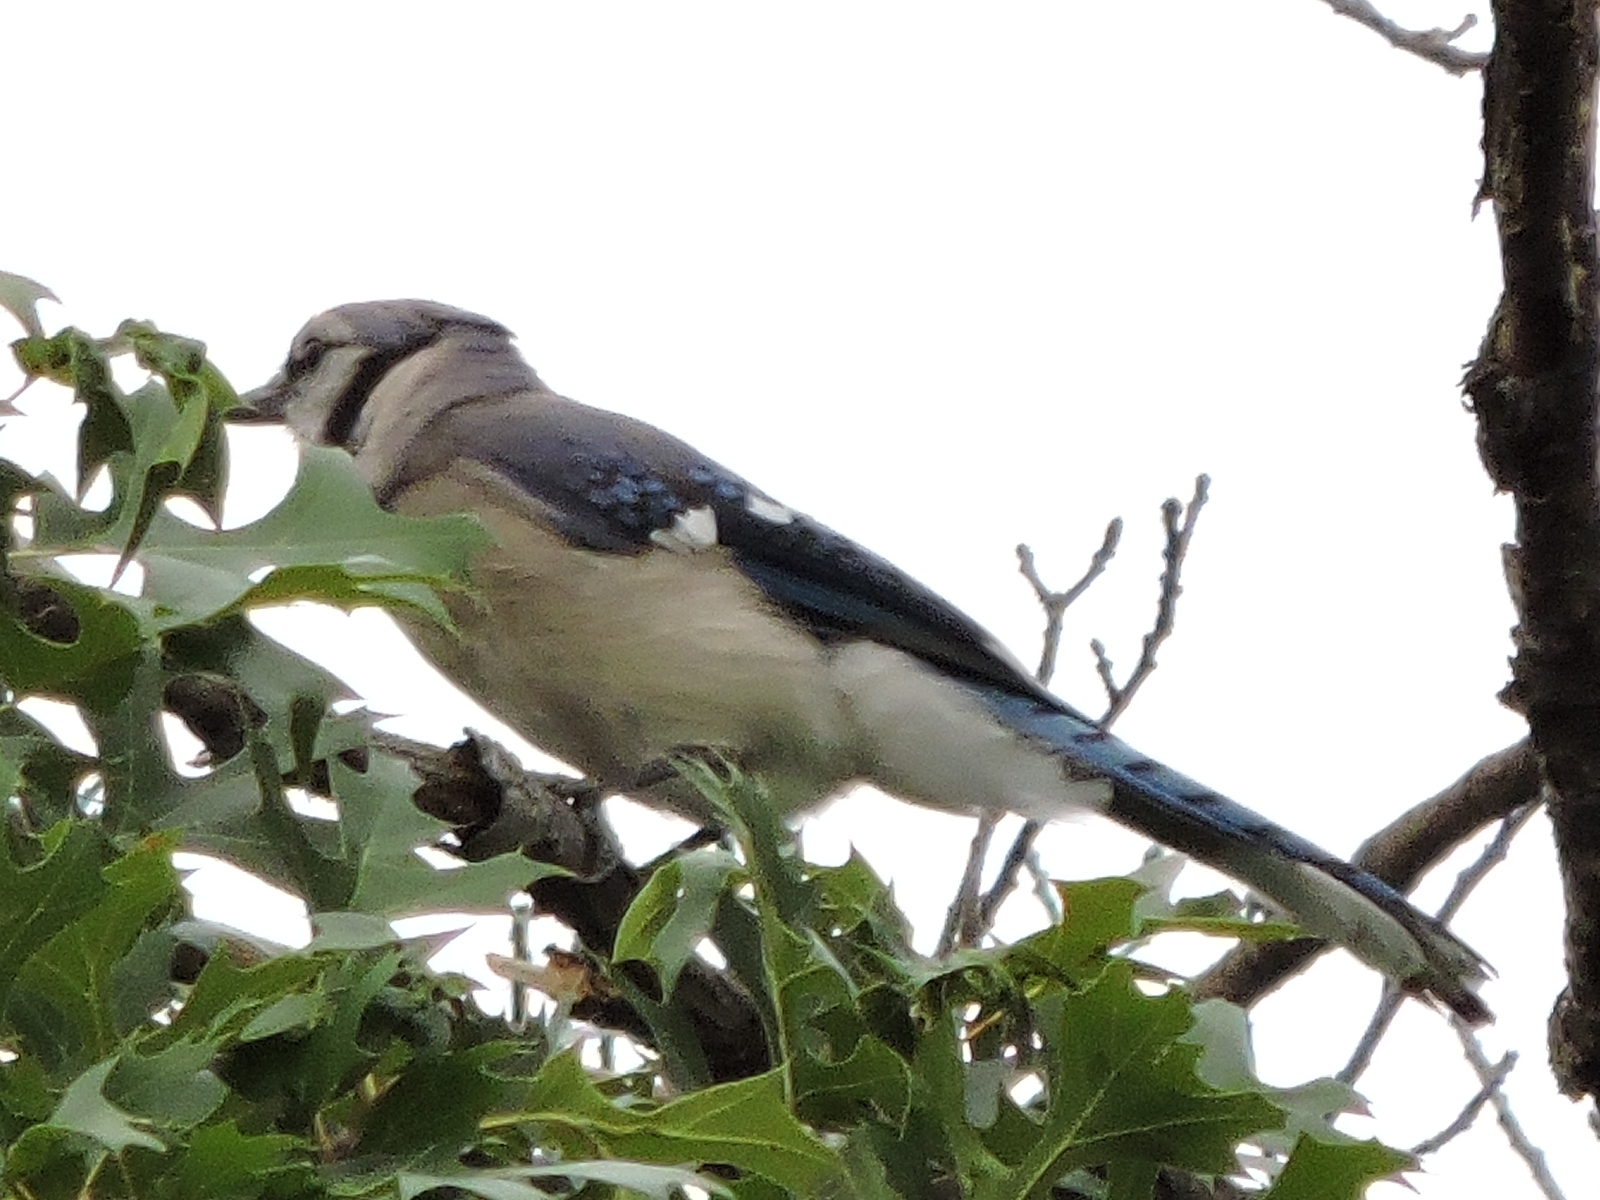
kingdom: Animalia
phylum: Chordata
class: Aves
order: Passeriformes
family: Corvidae
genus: Cyanocitta
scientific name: Cyanocitta cristata
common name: Blue jay
